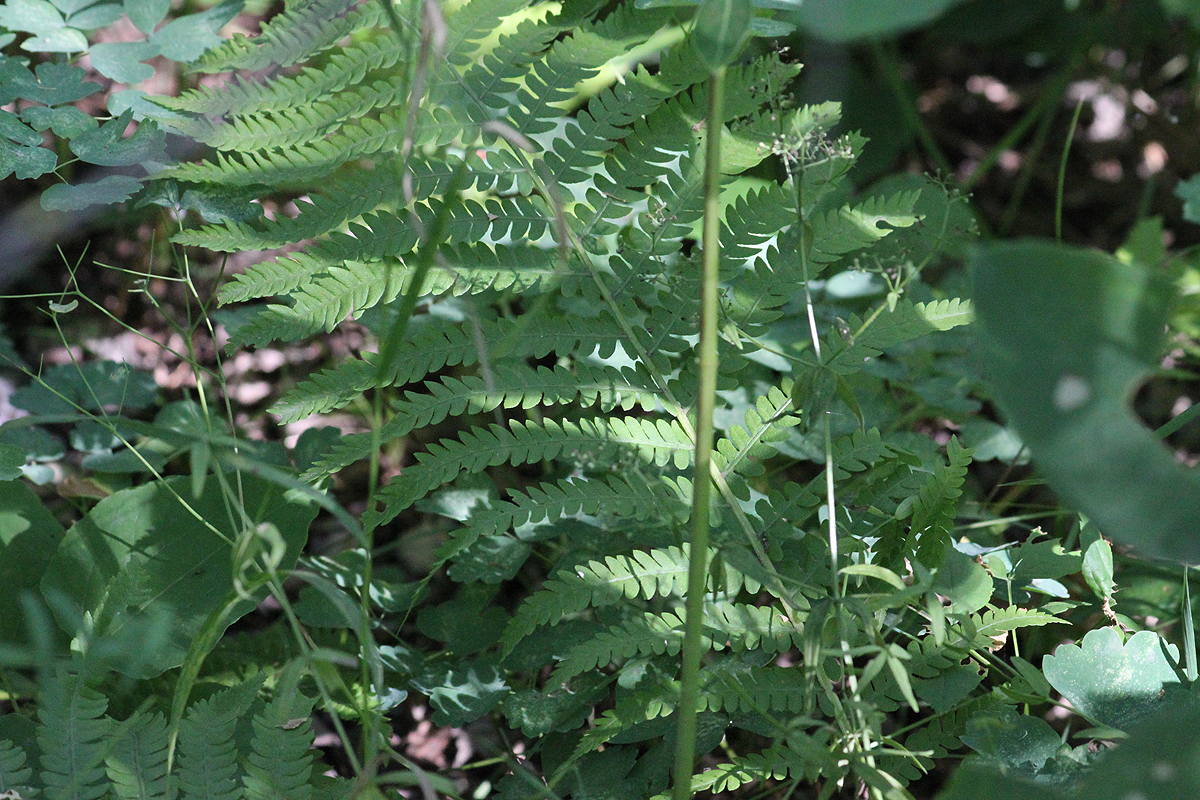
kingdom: Plantae
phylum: Tracheophyta
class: Polypodiopsida
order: Polypodiales
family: Onocleaceae
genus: Matteuccia
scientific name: Matteuccia struthiopteris
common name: Ostrich fern
